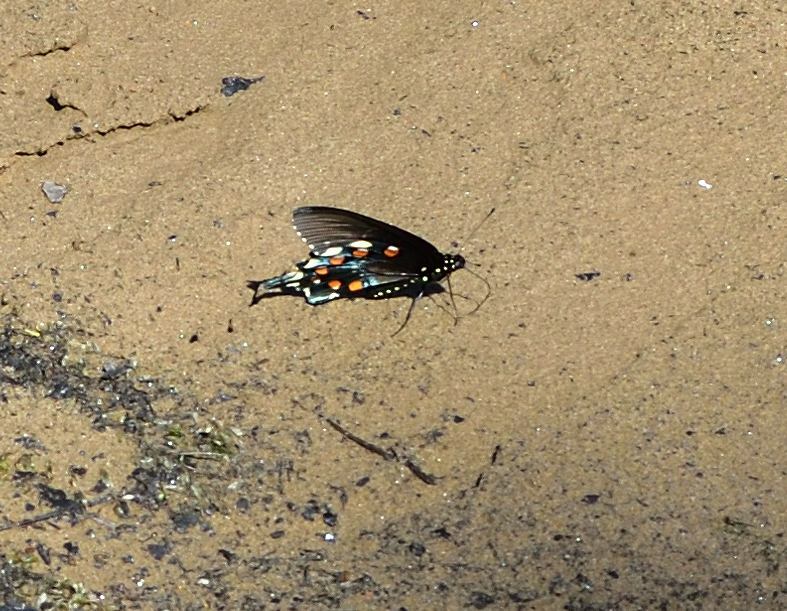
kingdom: Animalia
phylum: Arthropoda
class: Insecta
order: Lepidoptera
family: Papilionidae
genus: Battus
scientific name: Battus philenor
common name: Pipevine swallowtail
